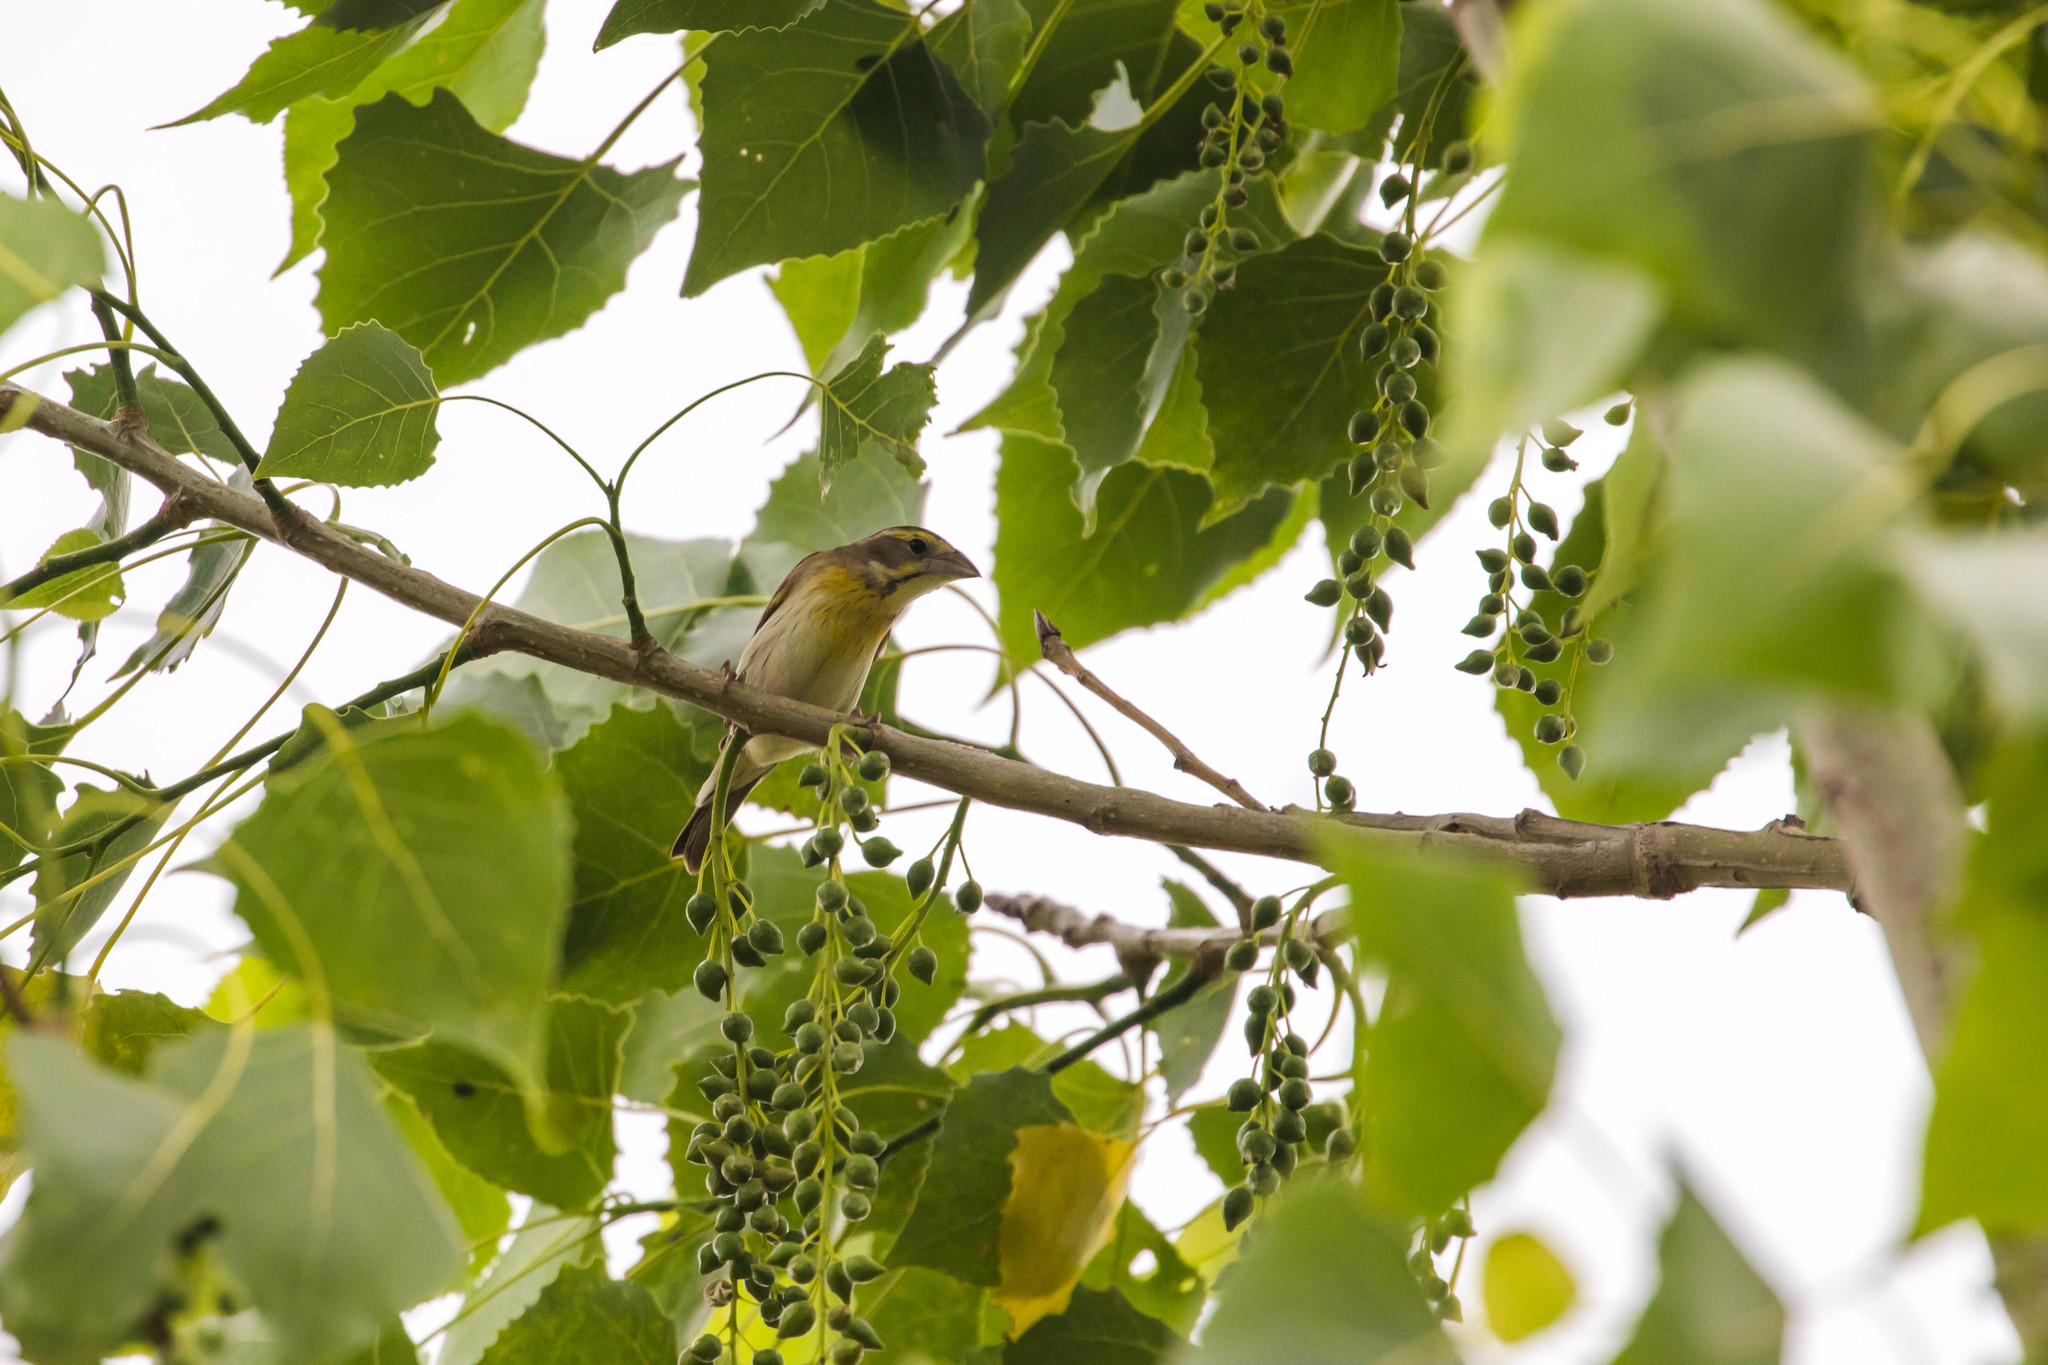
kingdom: Animalia
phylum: Chordata
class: Aves
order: Passeriformes
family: Cardinalidae
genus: Spiza
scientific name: Spiza americana
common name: Dickcissel
